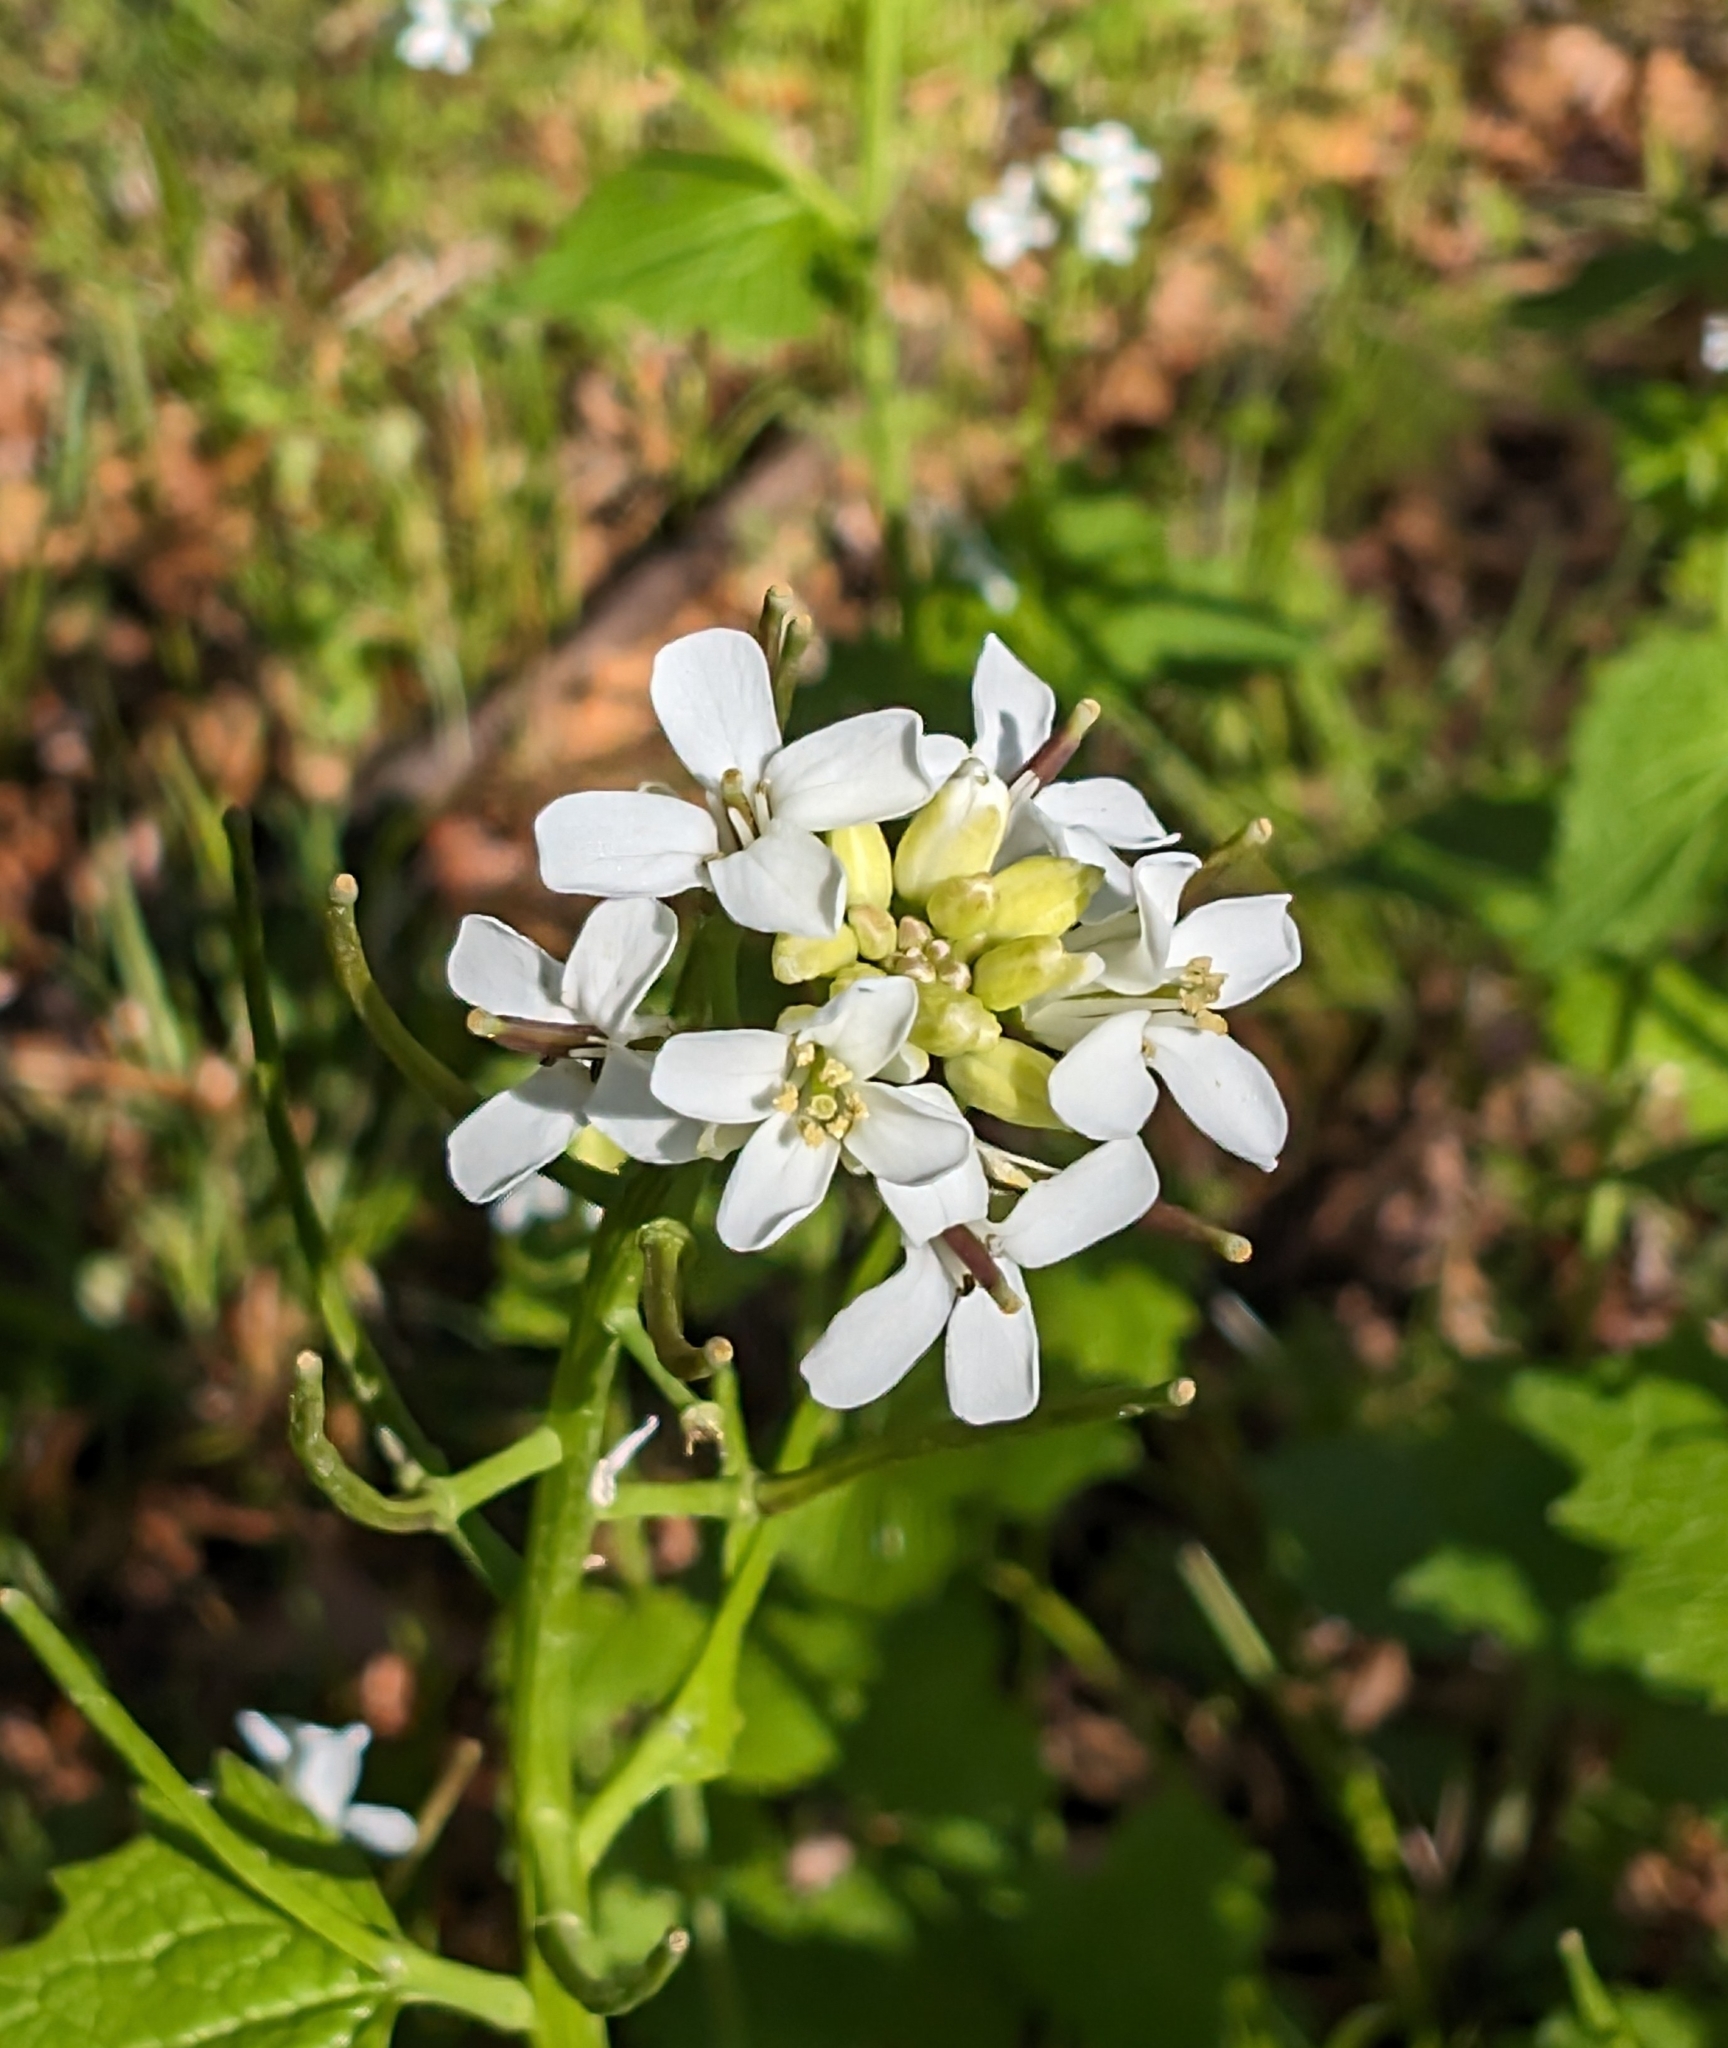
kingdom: Plantae
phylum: Tracheophyta
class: Magnoliopsida
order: Brassicales
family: Brassicaceae
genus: Alliaria
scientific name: Alliaria petiolata
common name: Garlic mustard
